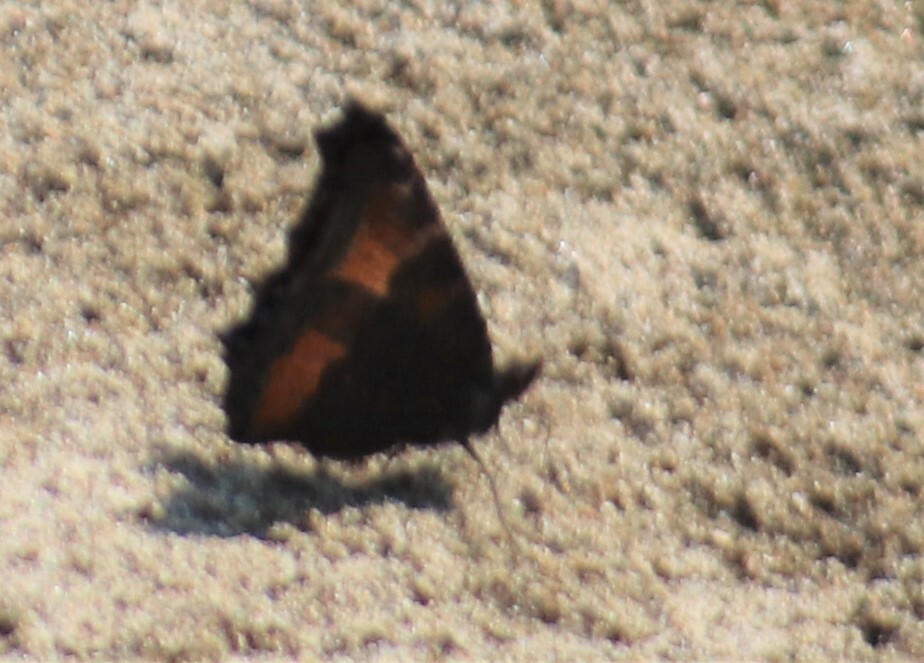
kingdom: Animalia
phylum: Arthropoda
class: Insecta
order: Lepidoptera
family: Nymphalidae
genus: Aglais
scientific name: Aglais milberti
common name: Milbert's tortoiseshell
